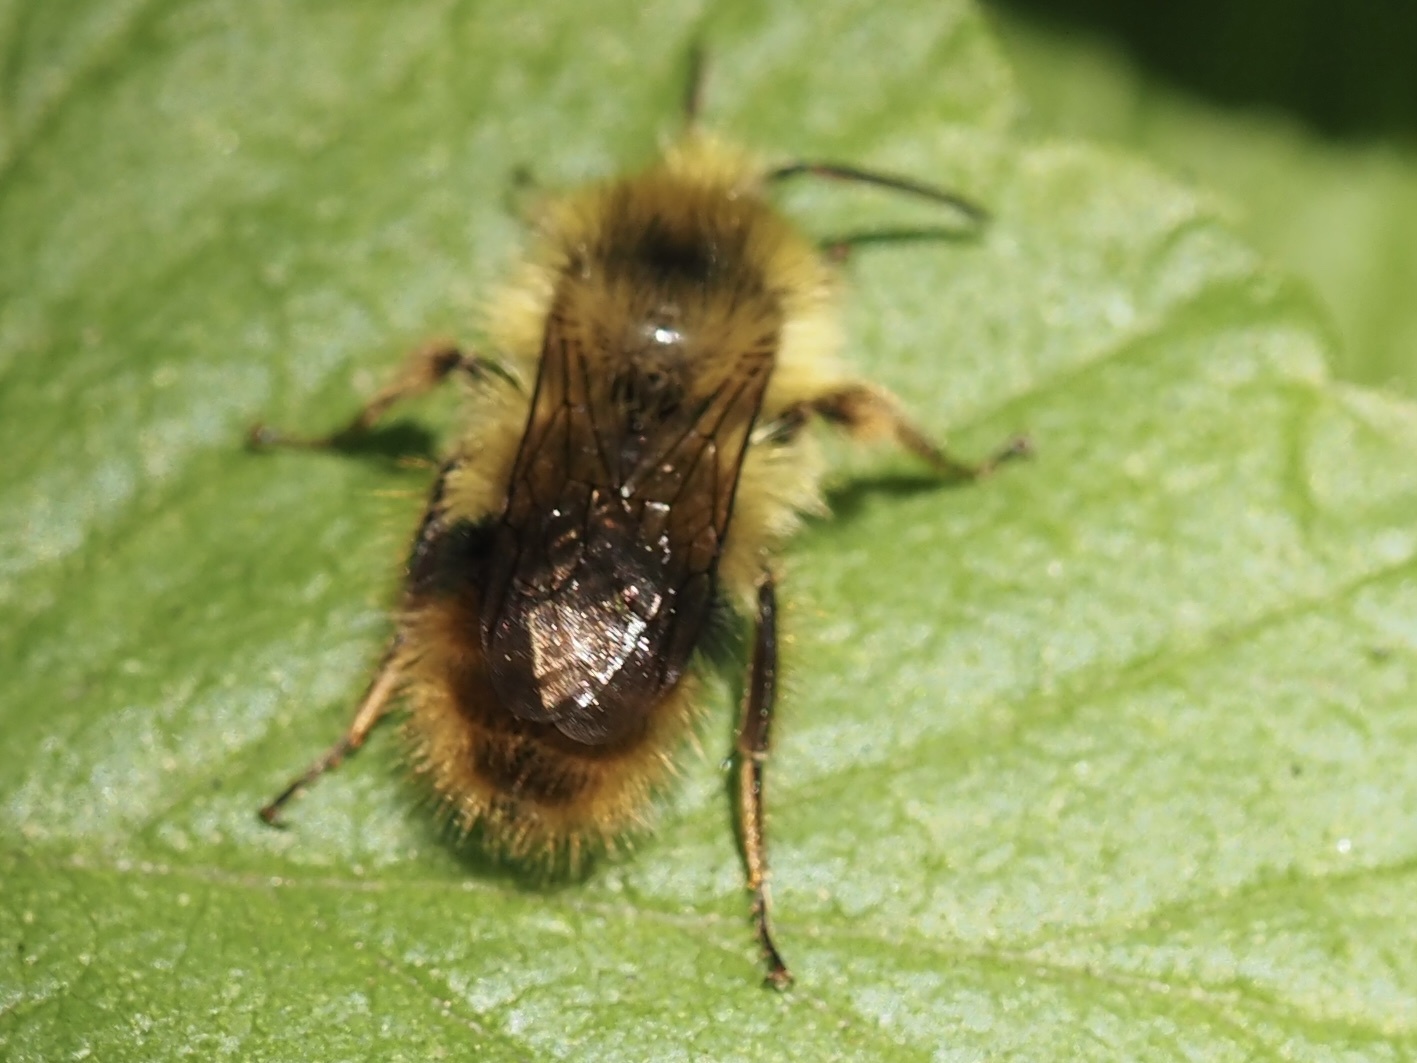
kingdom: Animalia
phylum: Arthropoda
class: Insecta
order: Hymenoptera
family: Apidae
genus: Bombus
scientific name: Bombus mixtus
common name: Fuzzy-horned bumble bee
